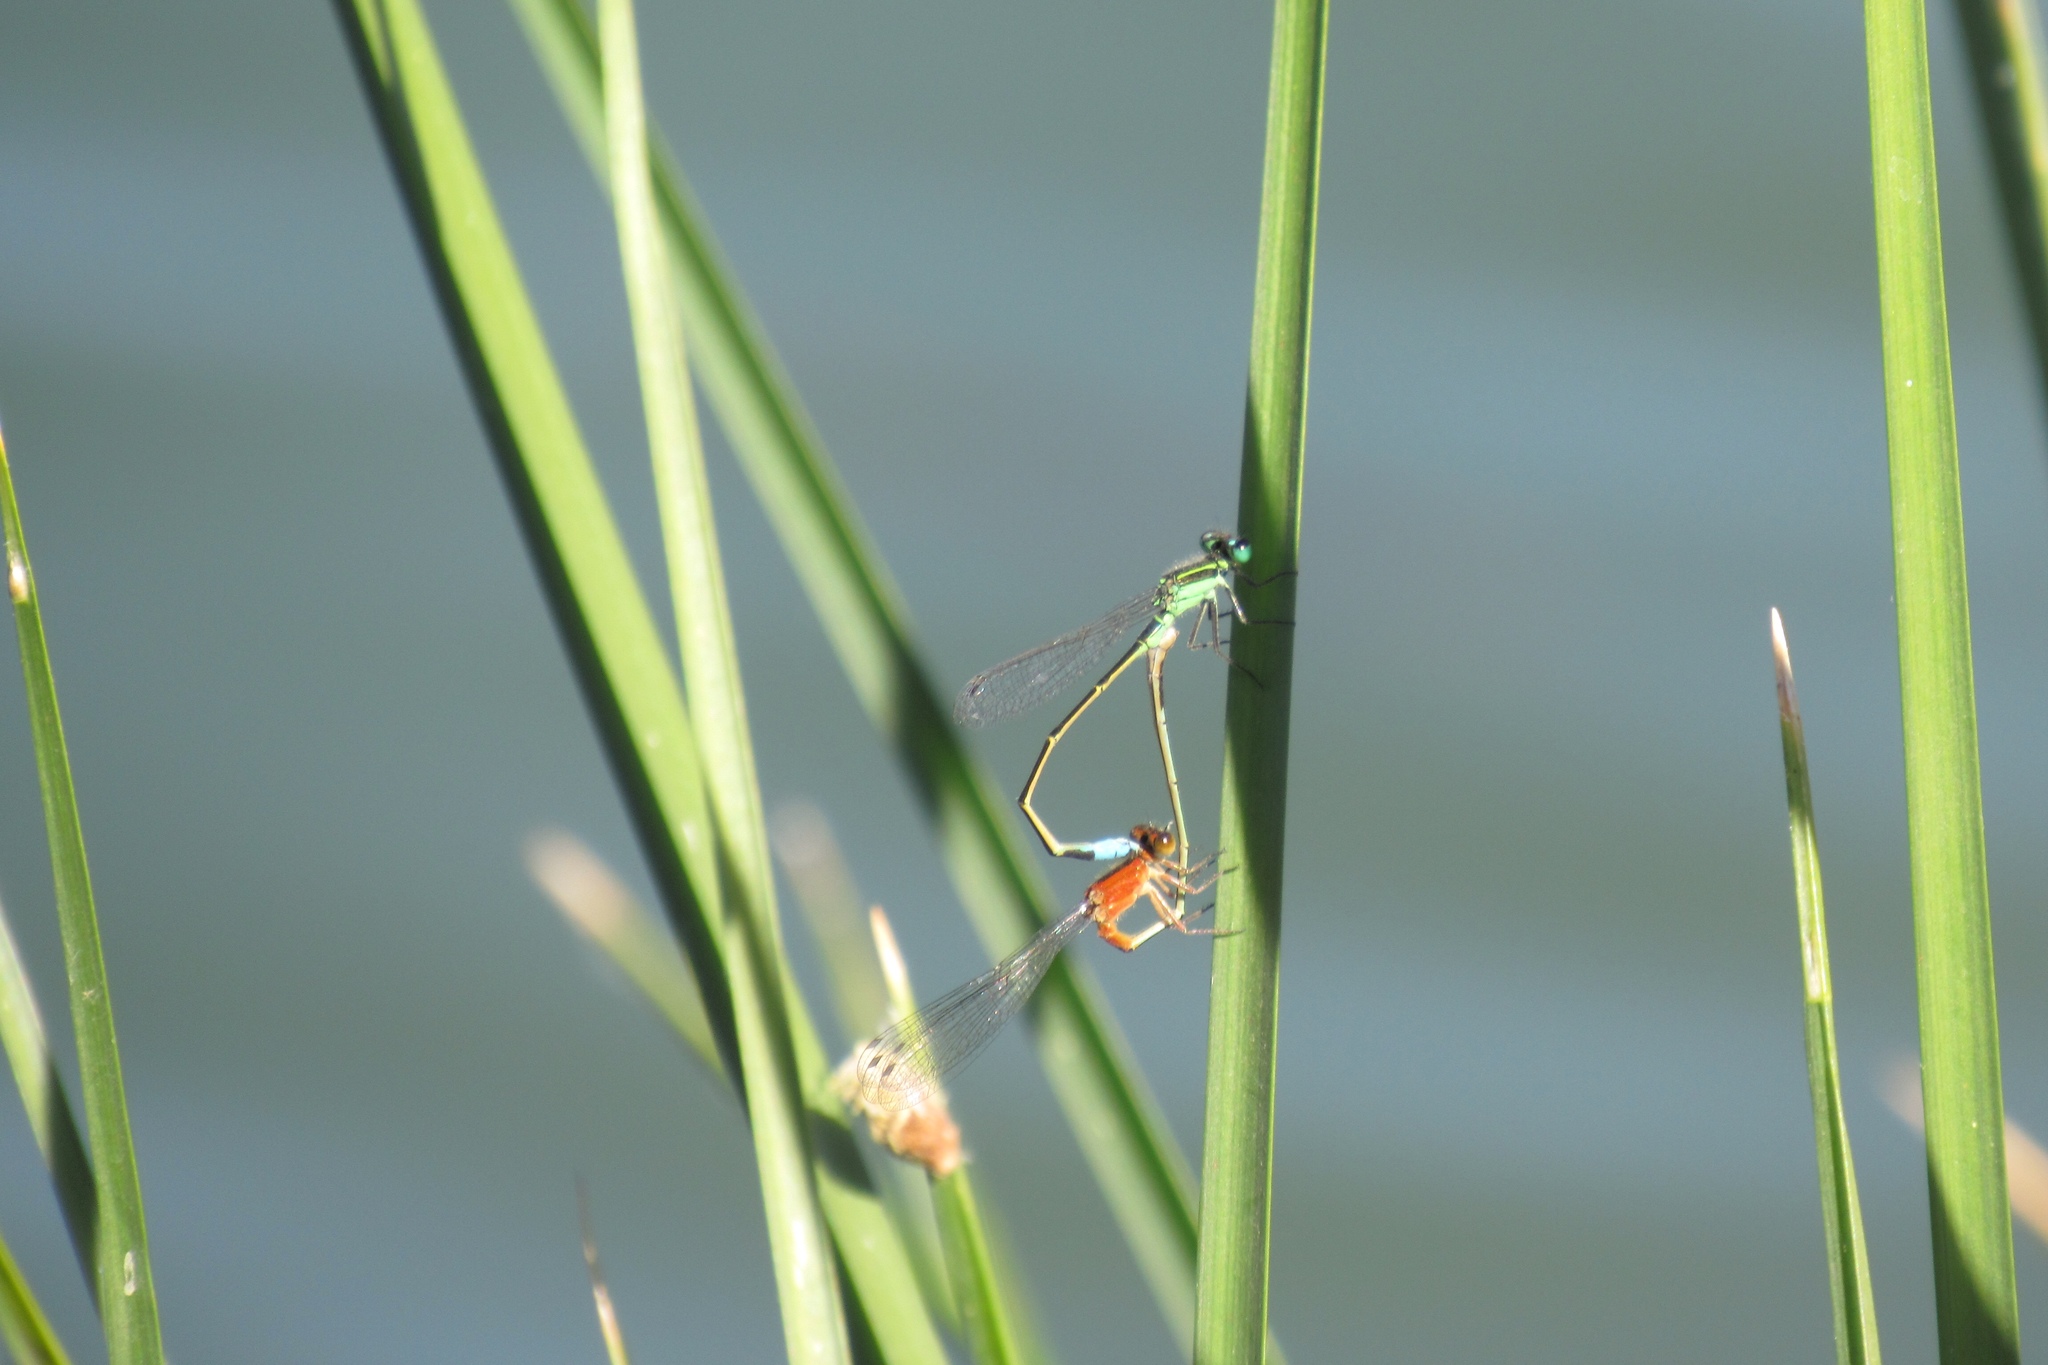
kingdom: Animalia
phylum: Arthropoda
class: Insecta
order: Odonata
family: Coenagrionidae
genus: Ischnura
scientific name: Ischnura ramburii
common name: Rambur's forktail
